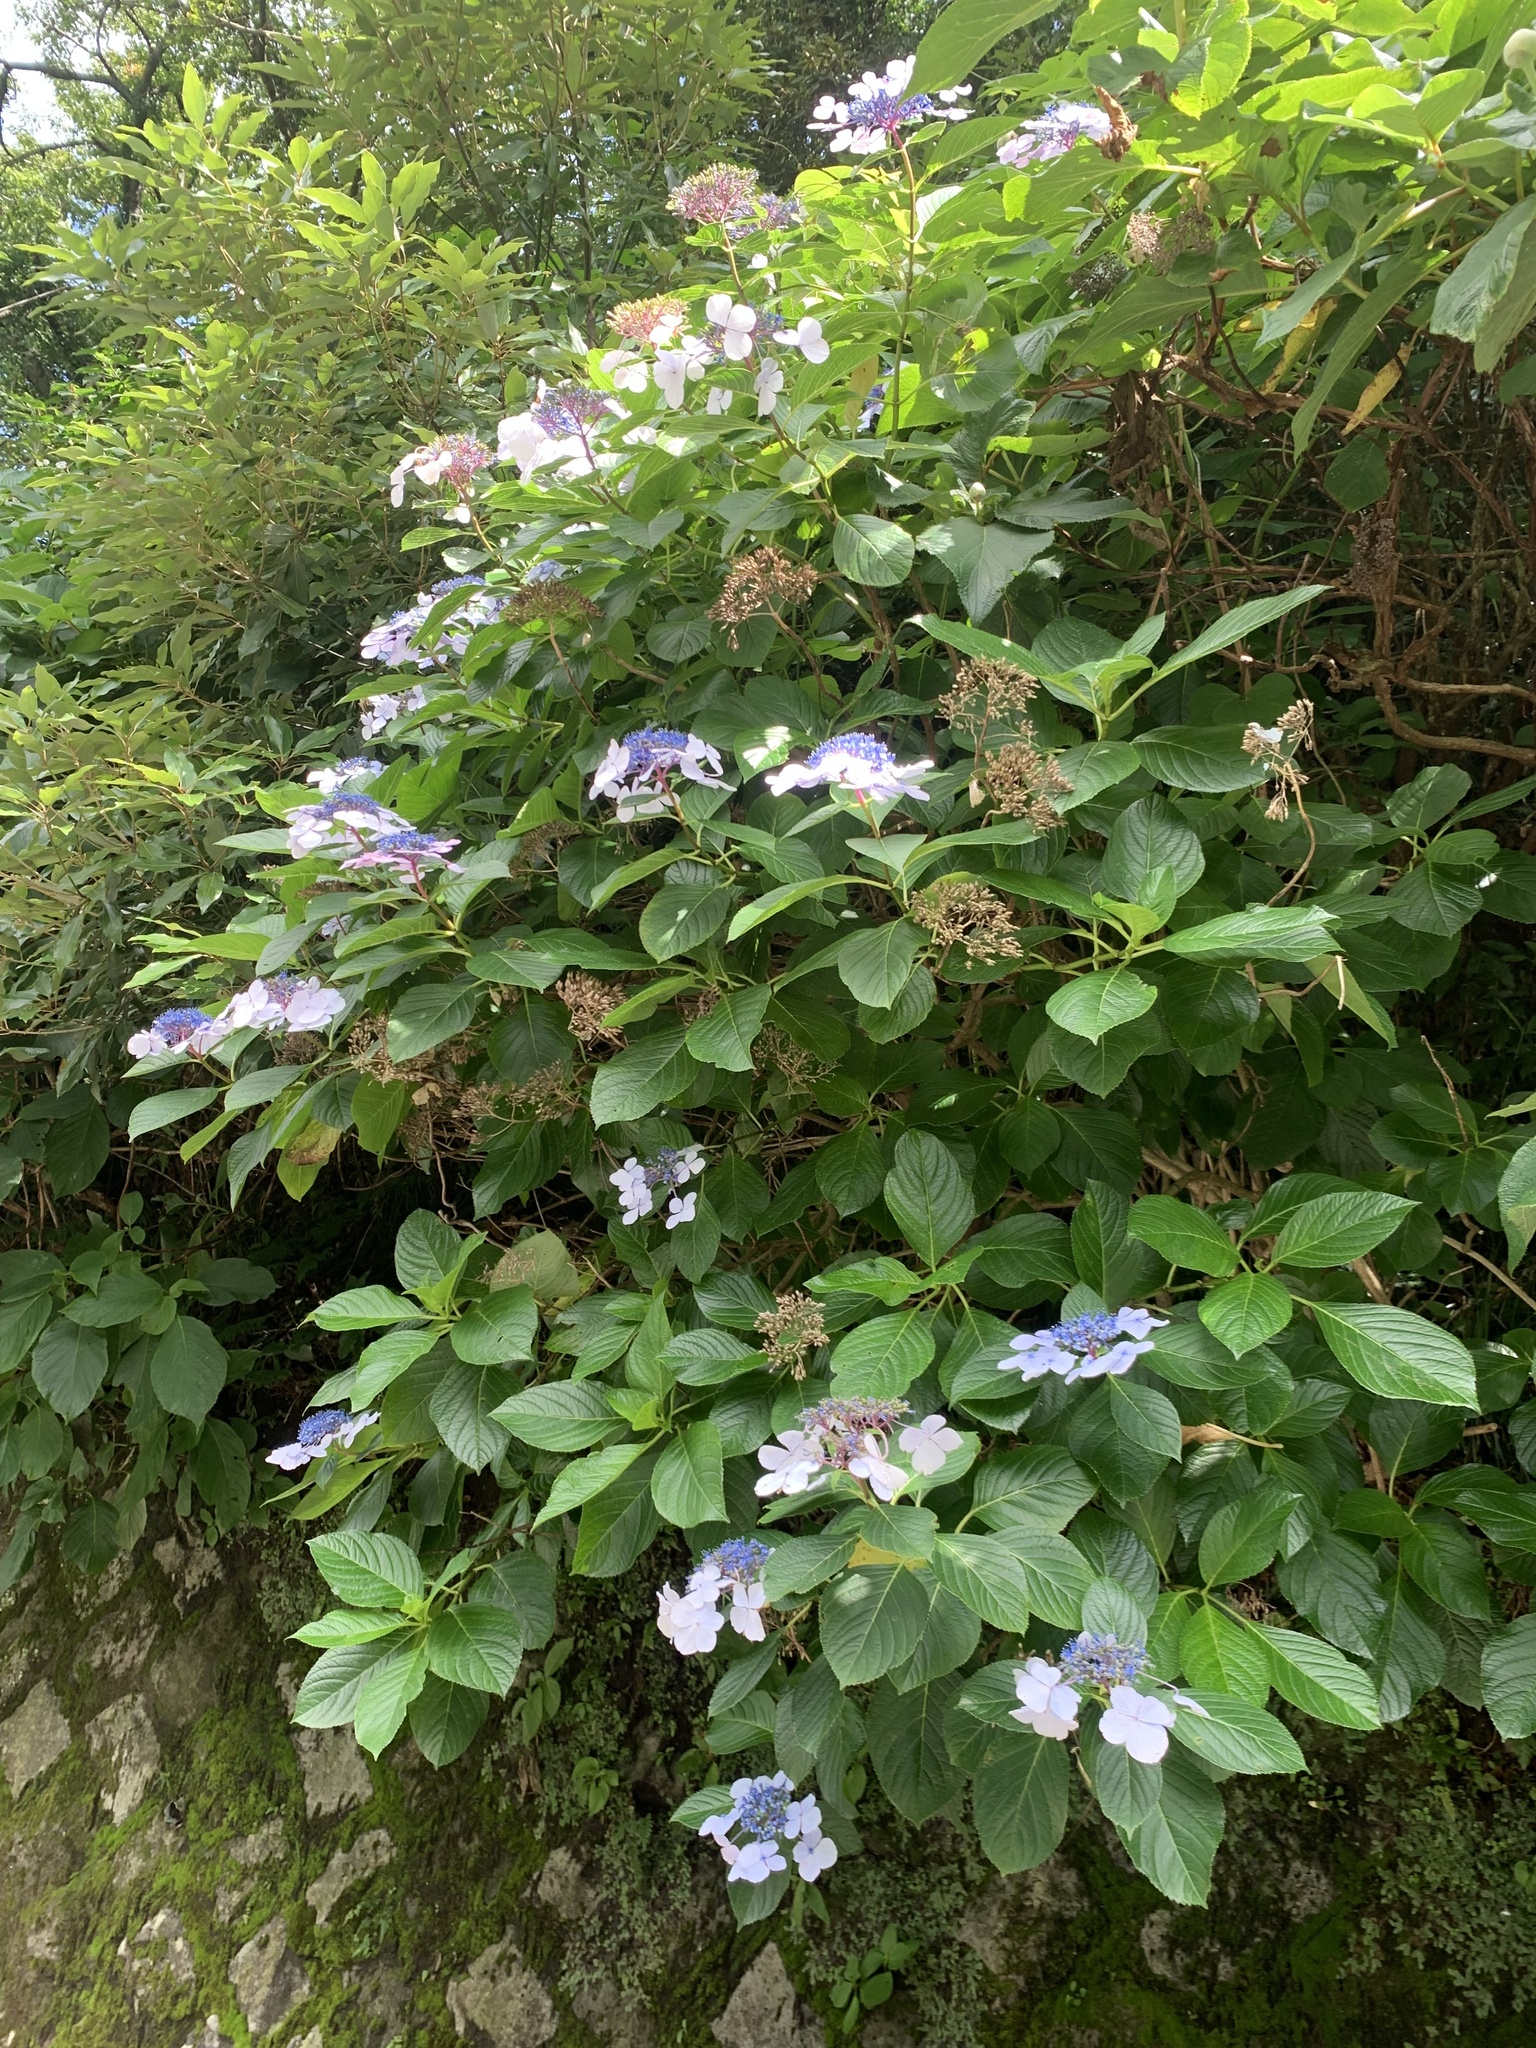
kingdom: Plantae
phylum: Tracheophyta
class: Magnoliopsida
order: Cornales
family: Hydrangeaceae
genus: Hydrangea
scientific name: Hydrangea macrophylla
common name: Hydrangea
